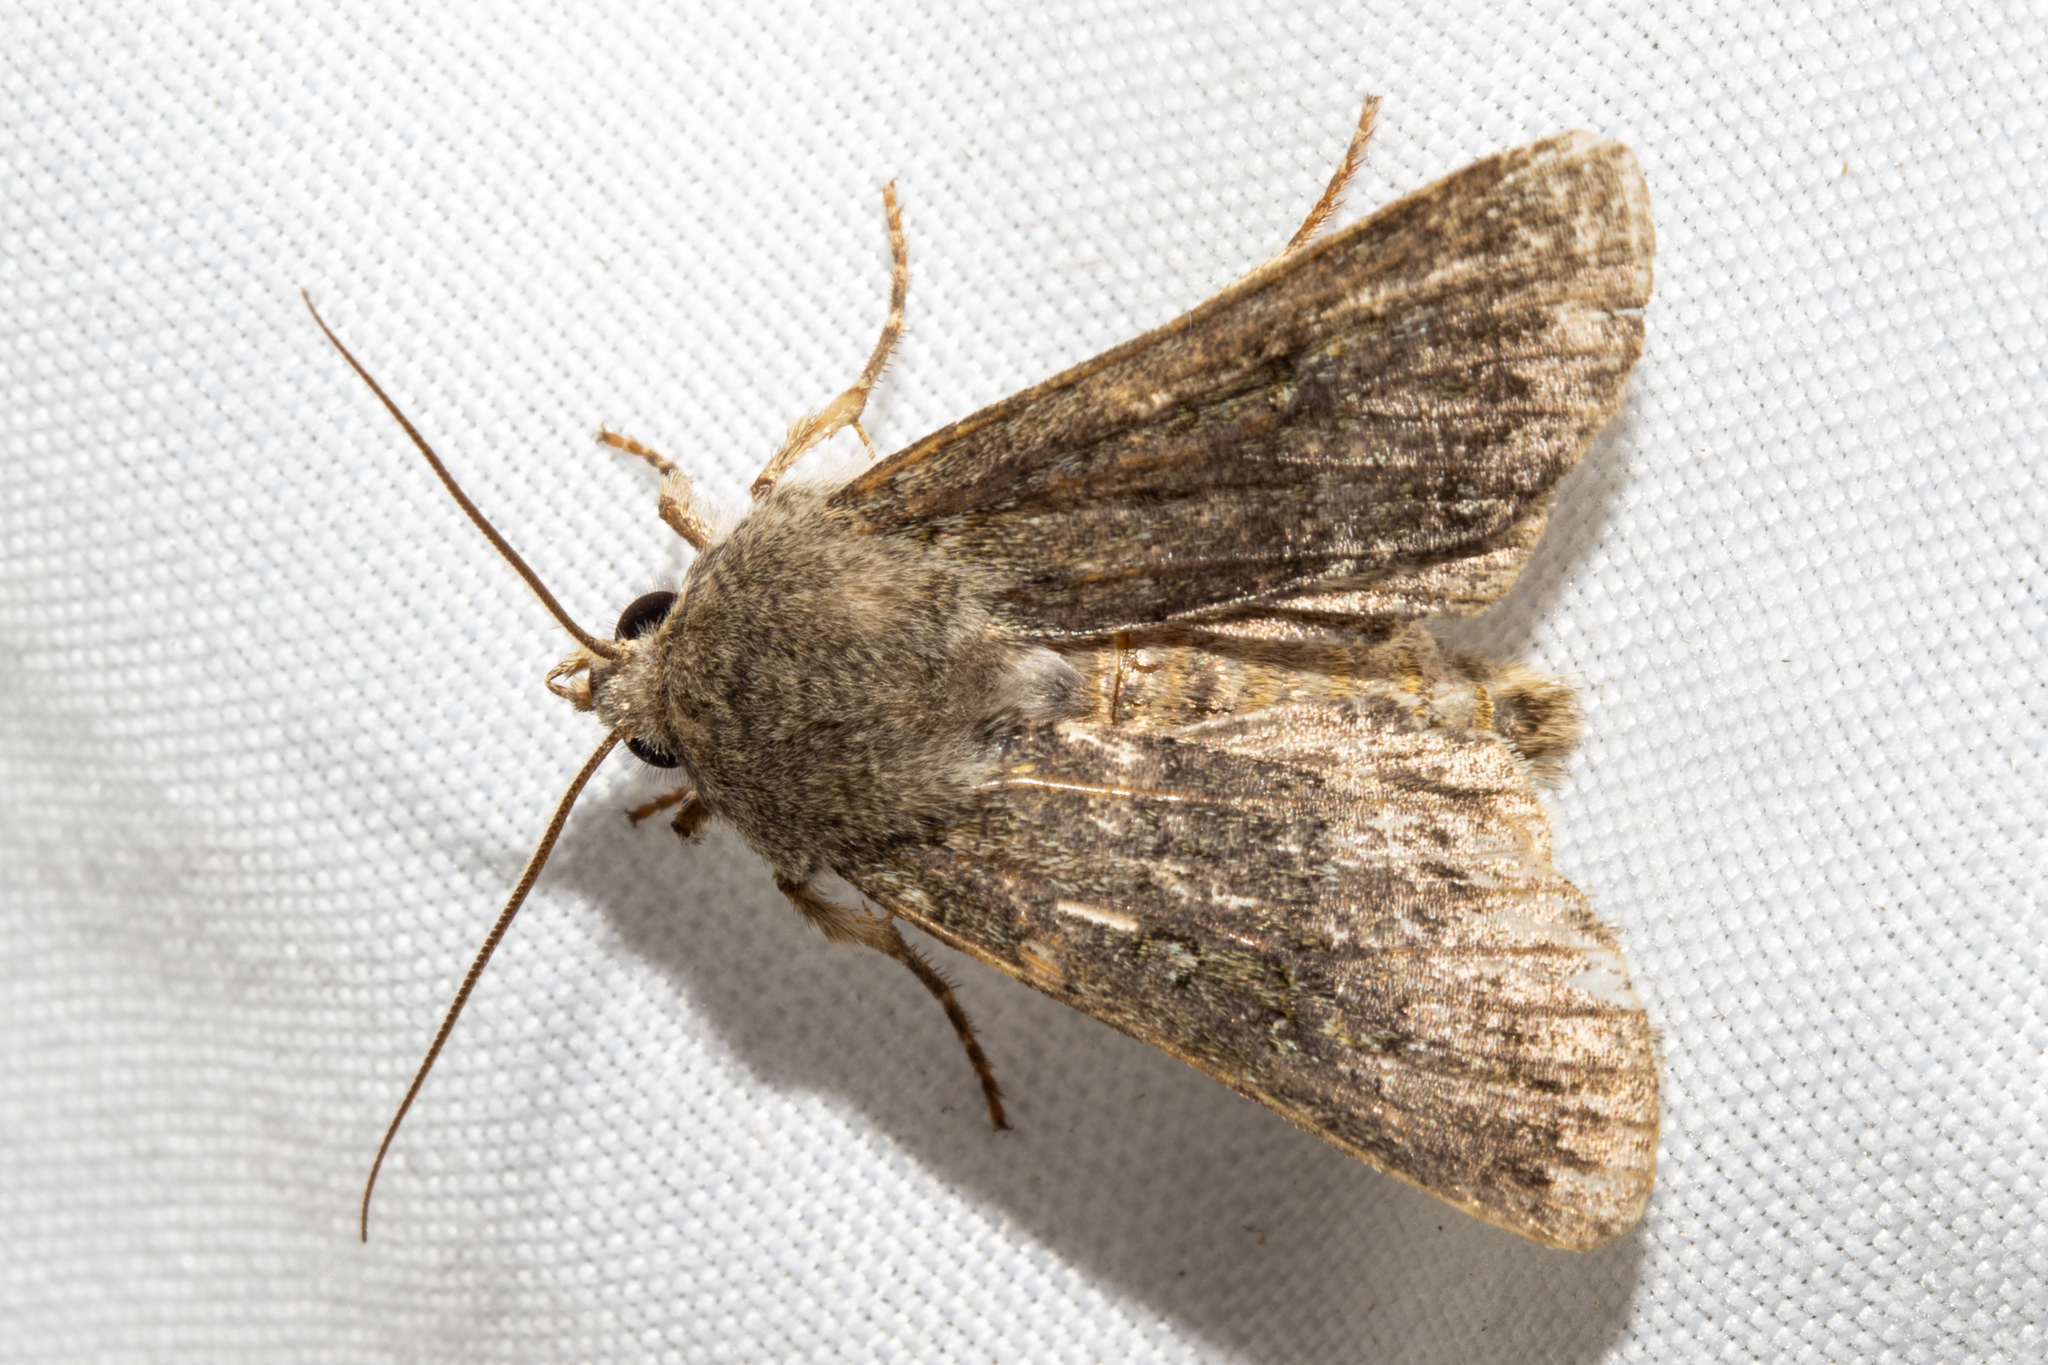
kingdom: Animalia
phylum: Arthropoda
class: Insecta
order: Lepidoptera
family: Noctuidae
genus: Ichneutica
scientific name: Ichneutica moderata
